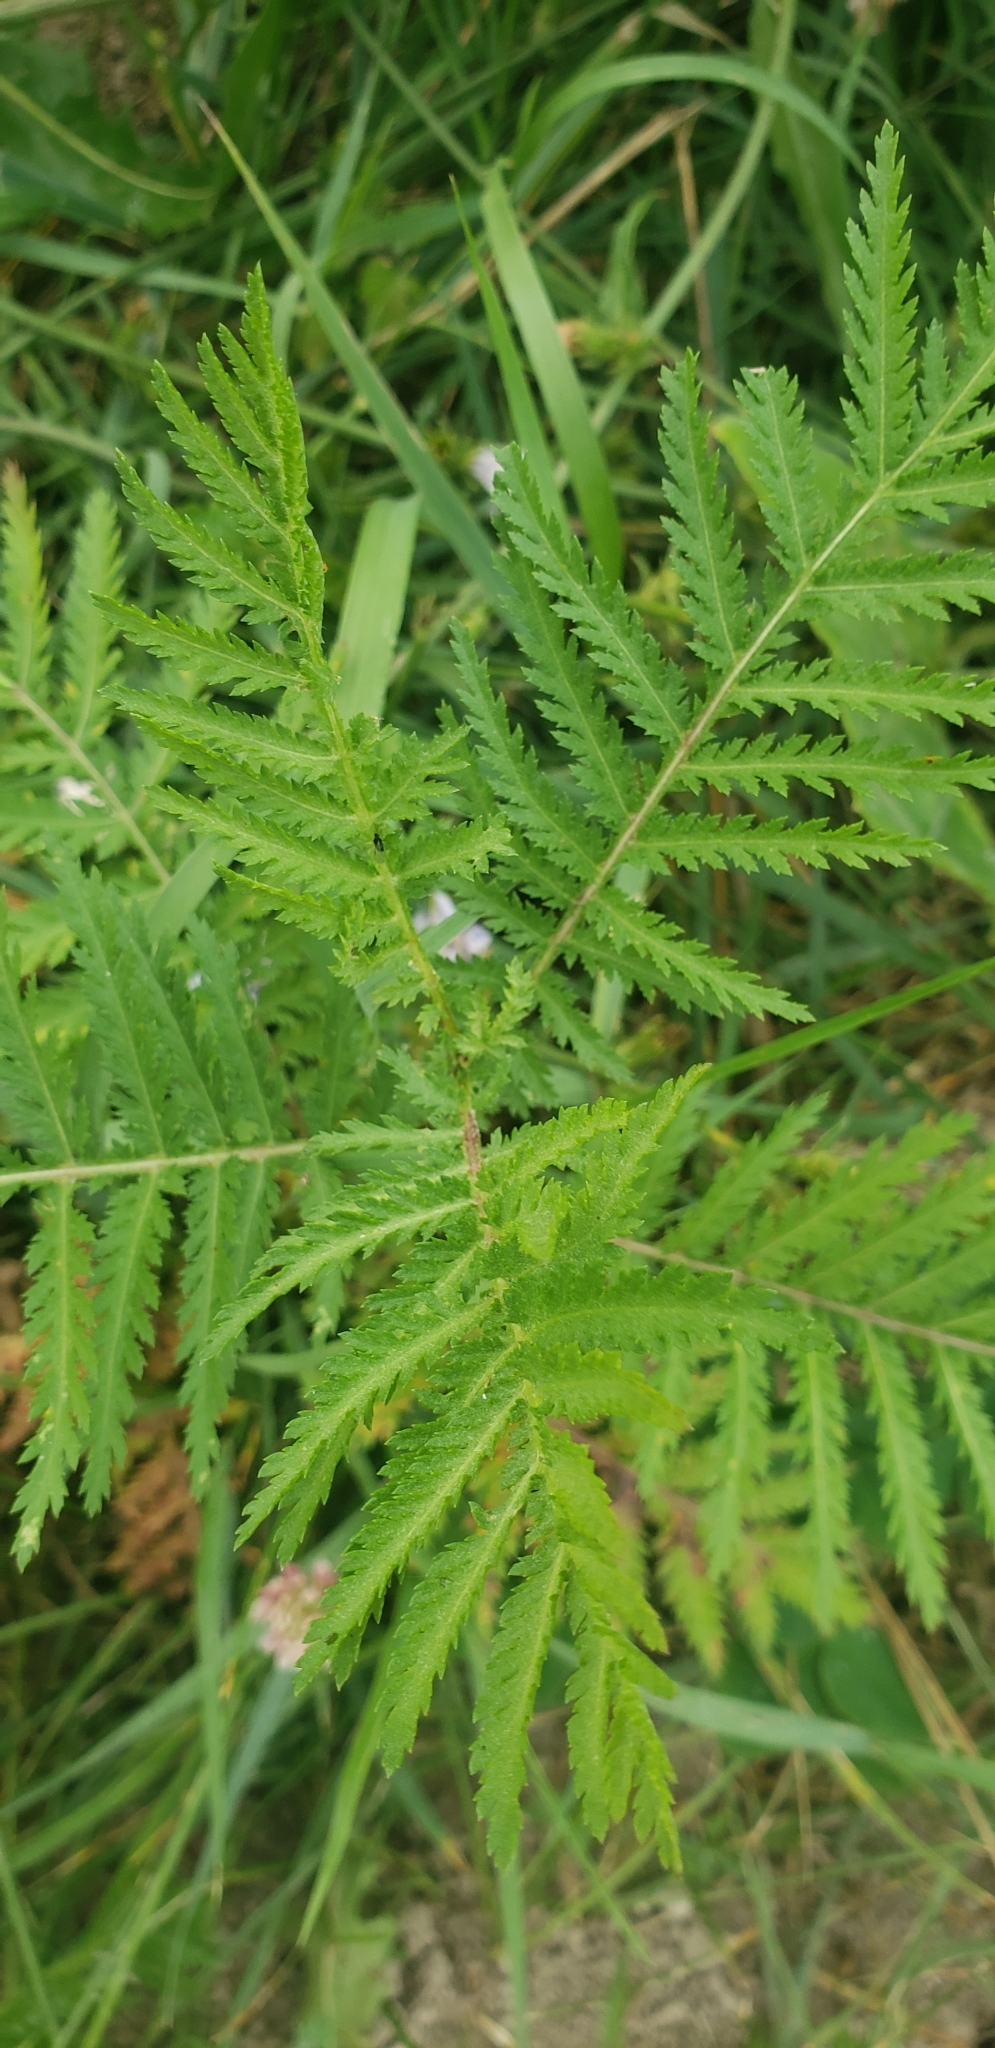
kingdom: Plantae
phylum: Tracheophyta
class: Magnoliopsida
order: Asterales
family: Asteraceae
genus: Tanacetum
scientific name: Tanacetum vulgare
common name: Common tansy
